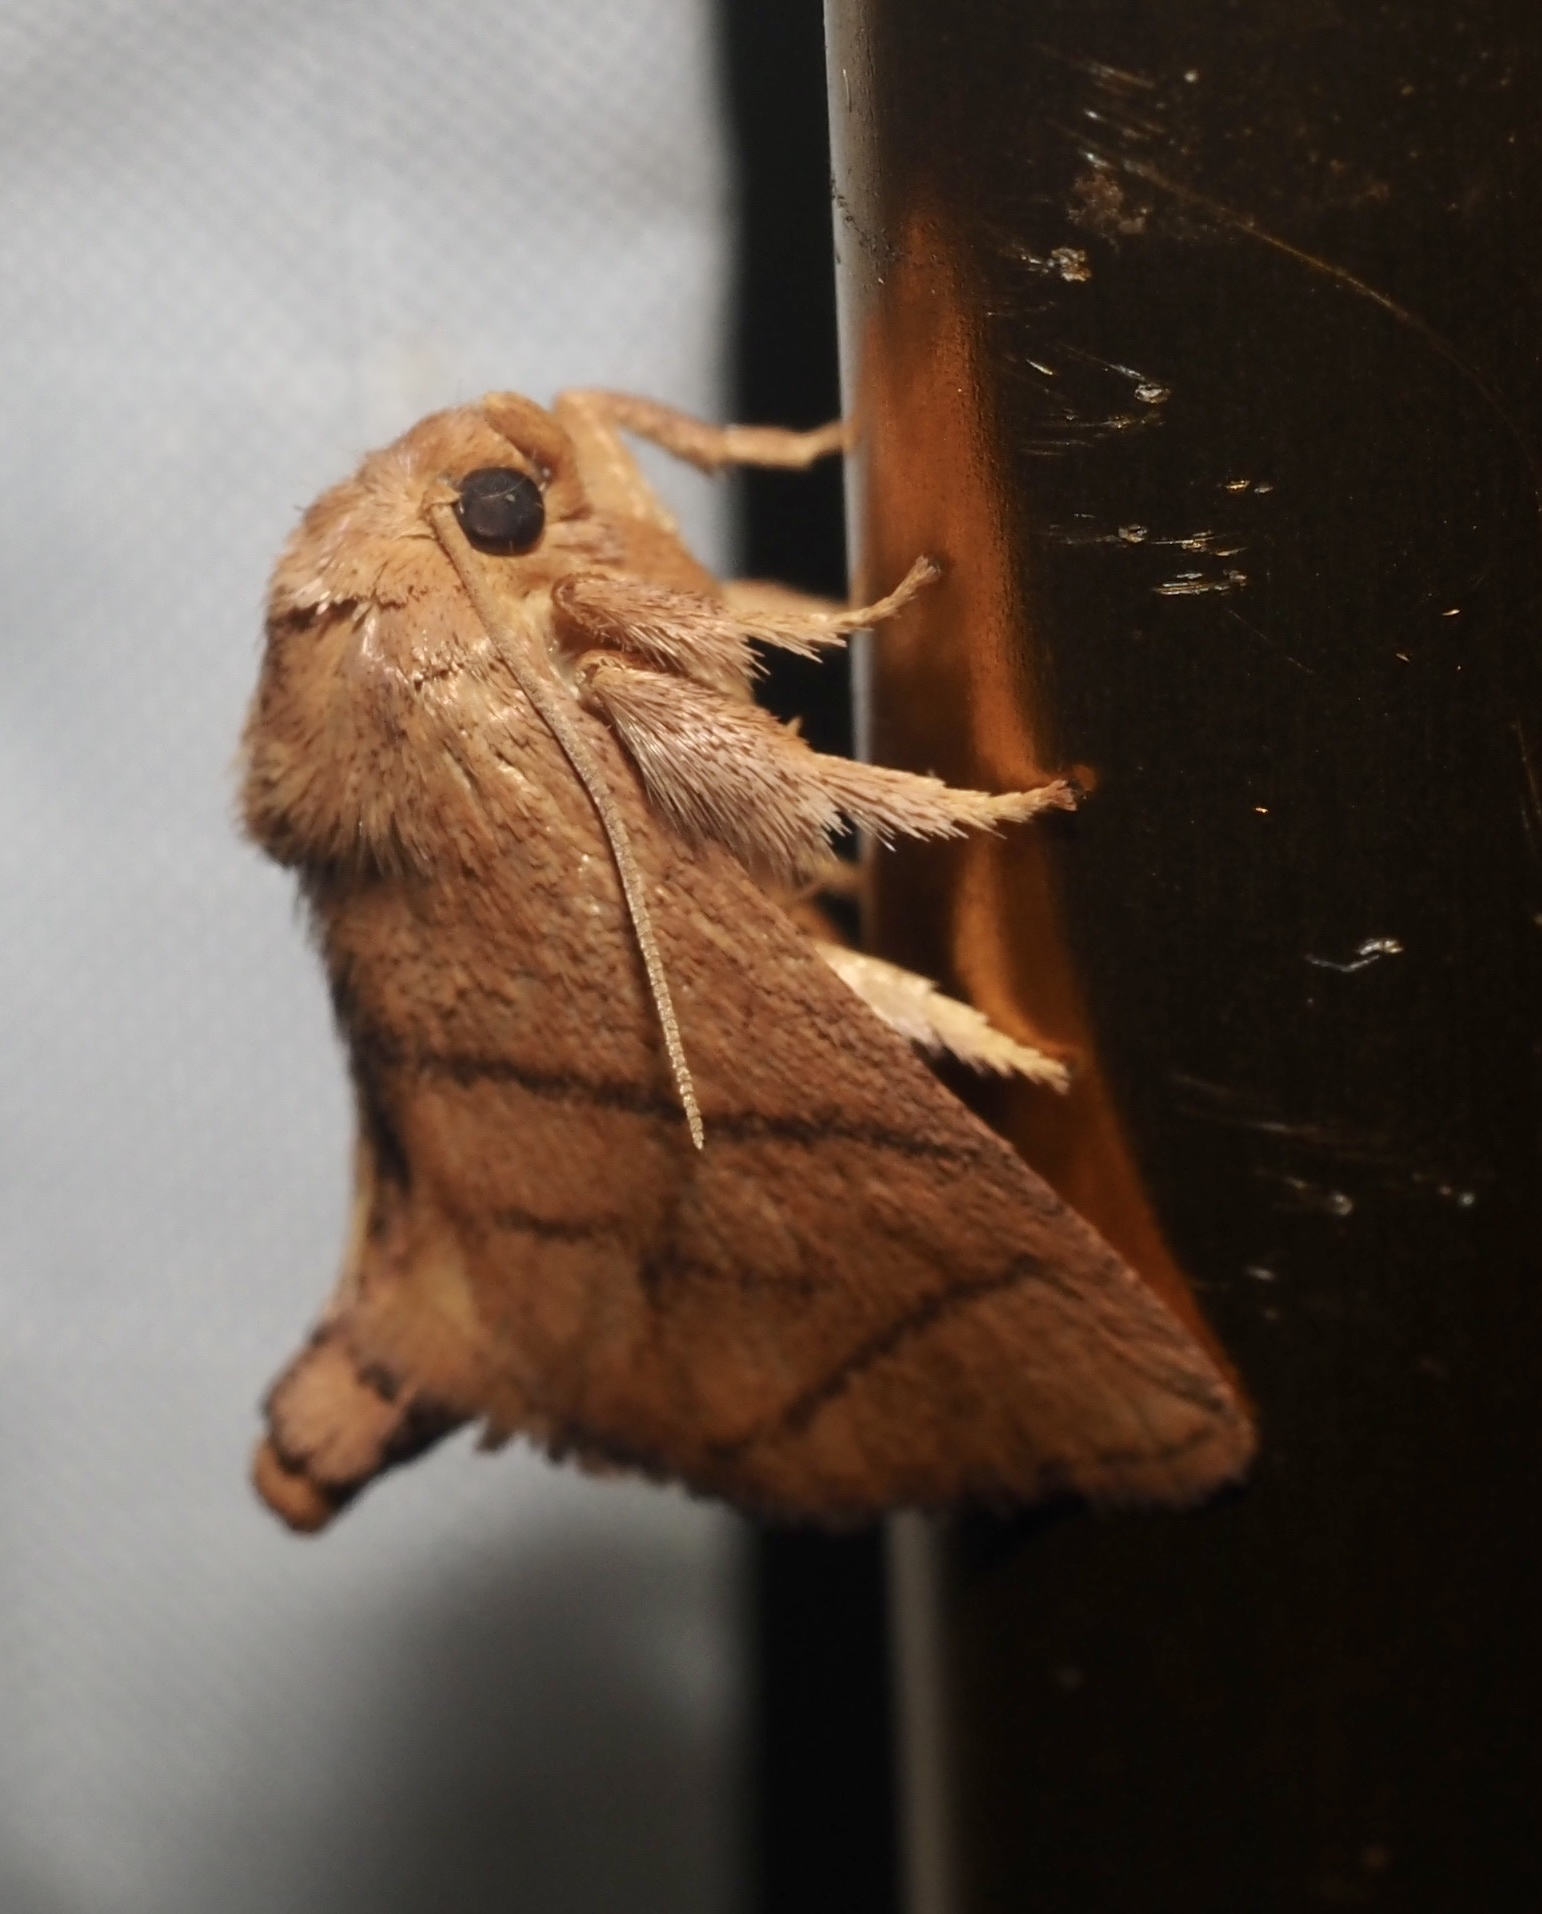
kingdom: Animalia
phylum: Arthropoda
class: Insecta
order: Lepidoptera
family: Limacodidae
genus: Apoda
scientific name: Apoda y-inversa
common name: Yellow-collared slug moth
